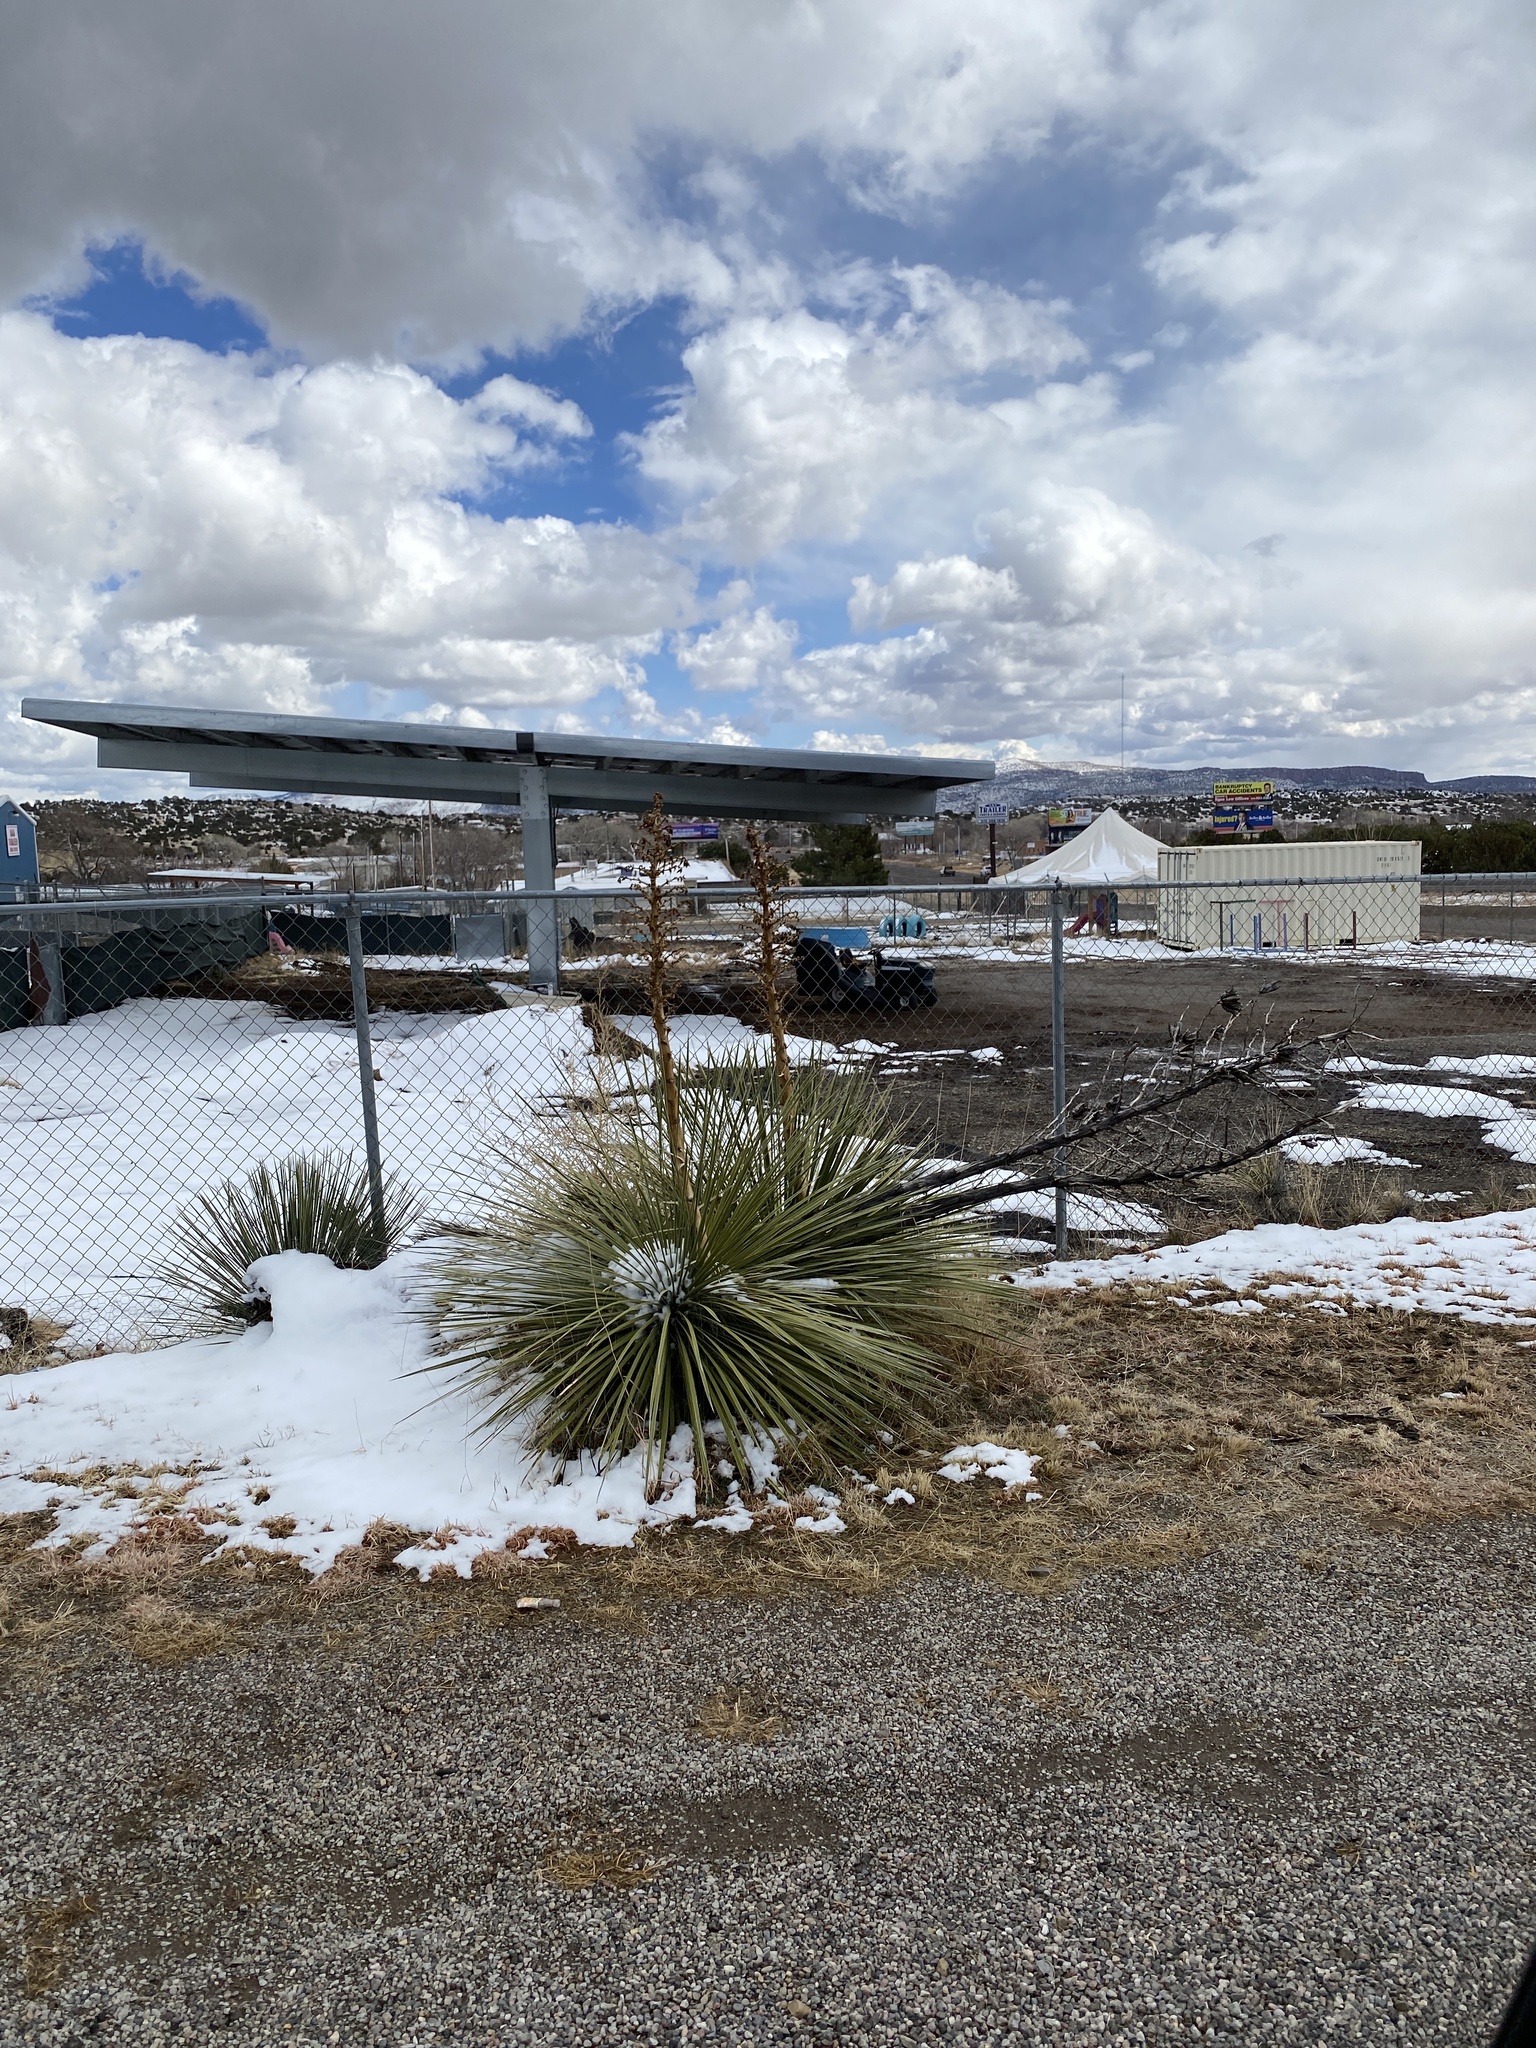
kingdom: Plantae
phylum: Tracheophyta
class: Liliopsida
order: Asparagales
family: Asparagaceae
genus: Yucca
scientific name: Yucca elata
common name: Palmella
